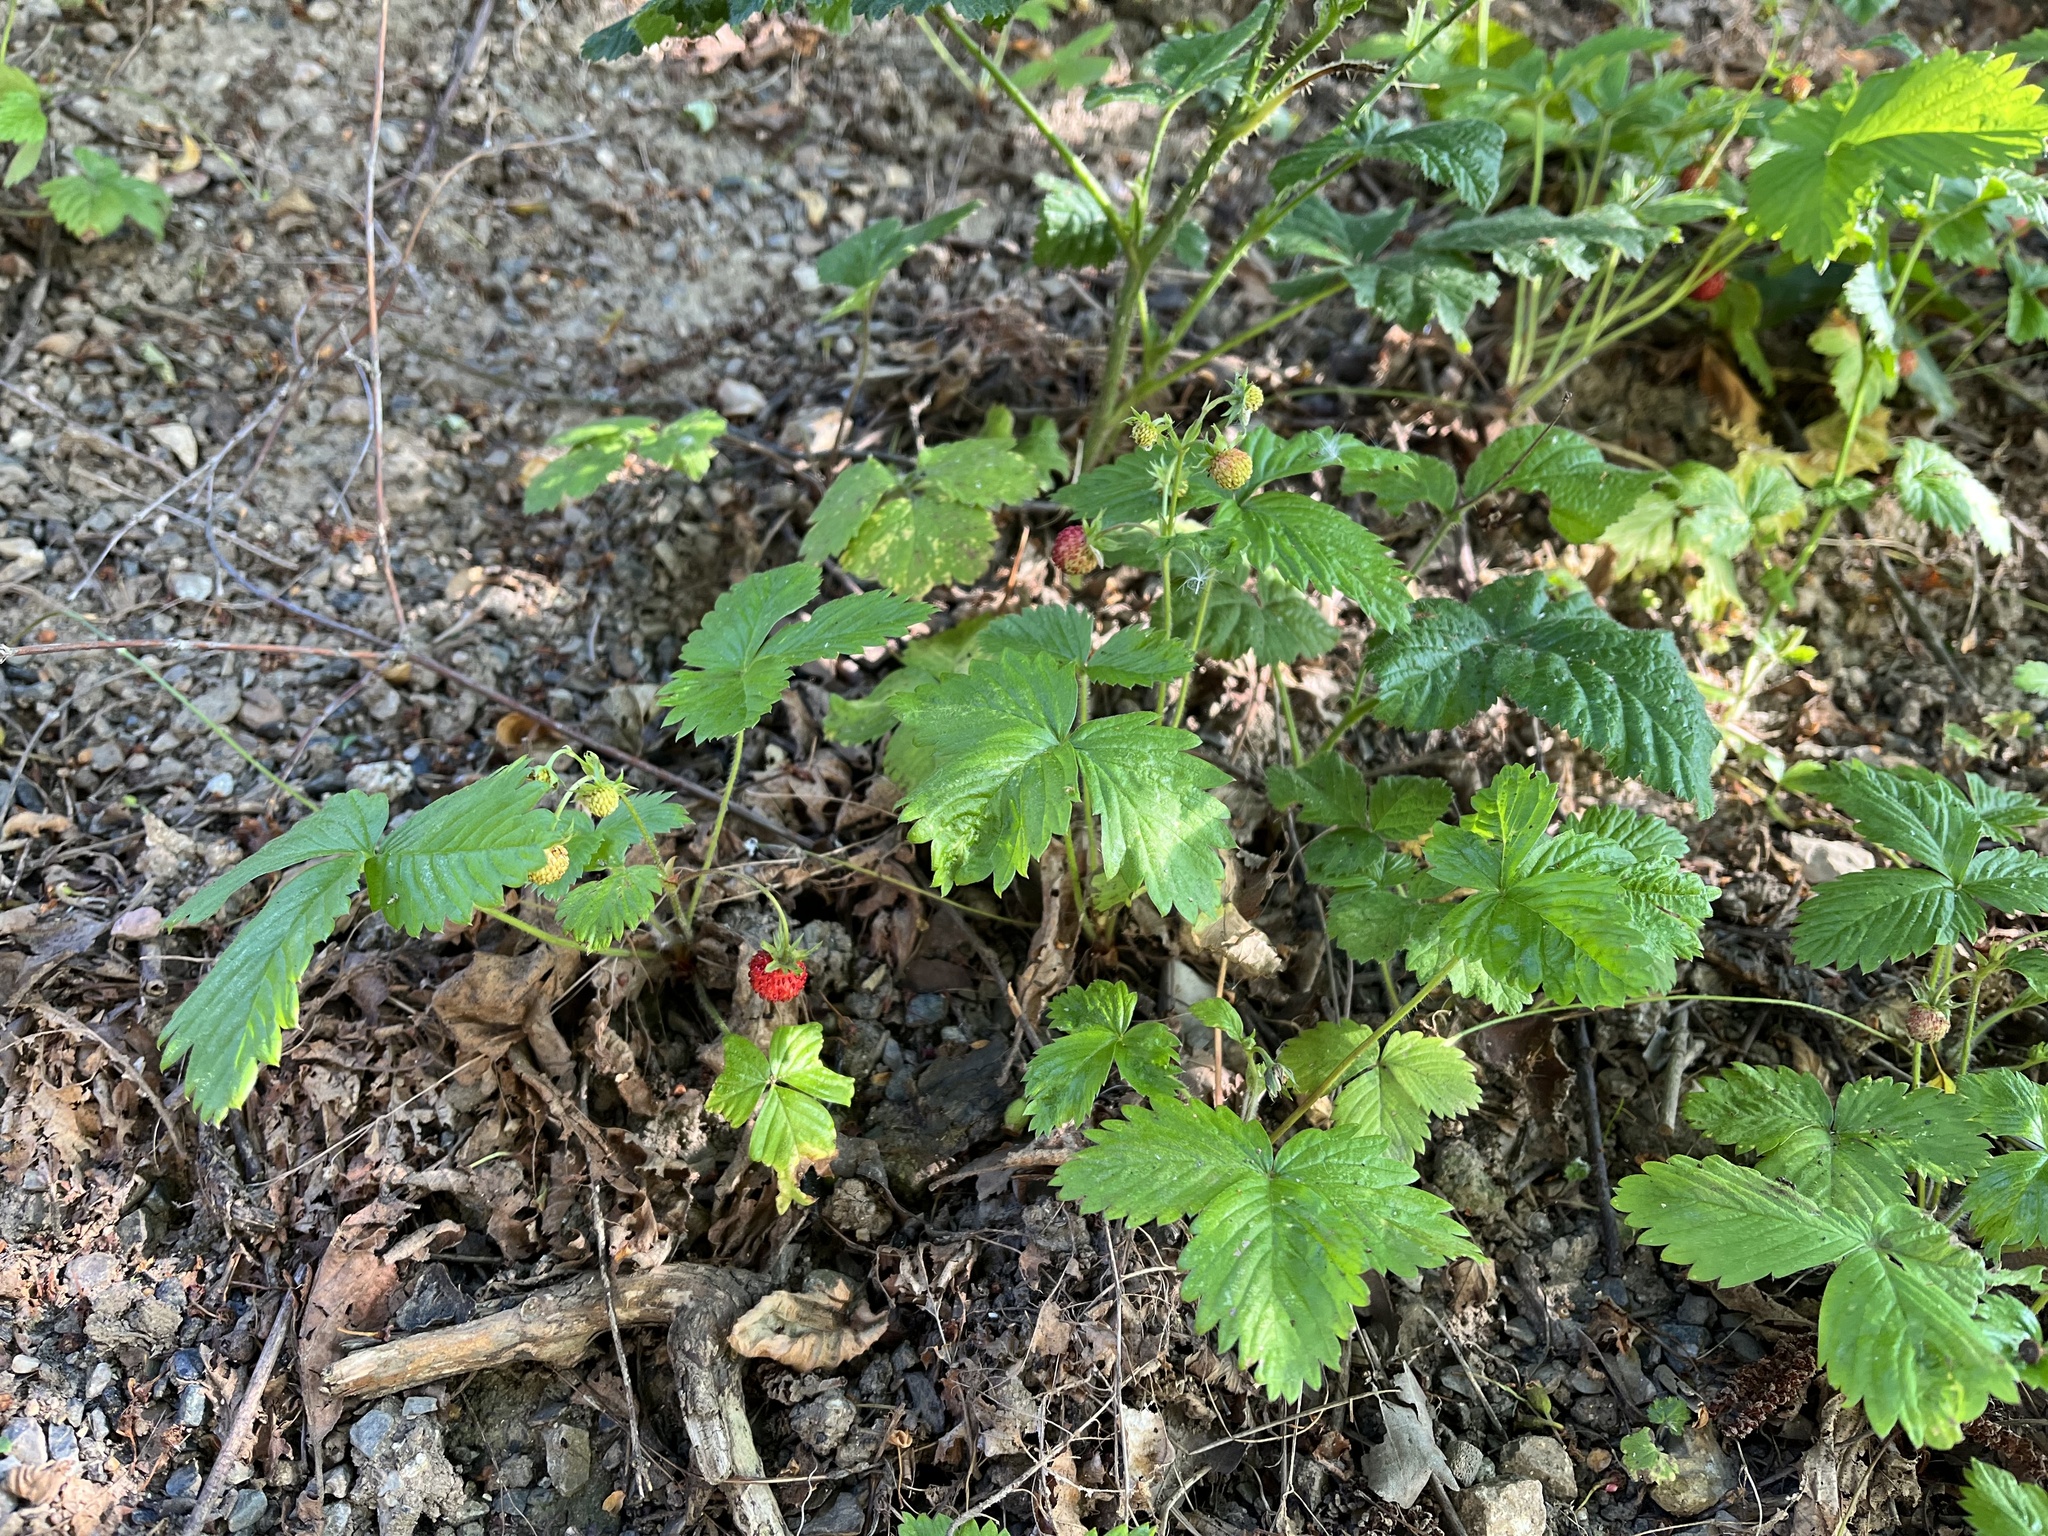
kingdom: Plantae
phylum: Tracheophyta
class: Magnoliopsida
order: Rosales
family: Rosaceae
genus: Fragaria
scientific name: Fragaria vesca
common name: Wild strawberry
